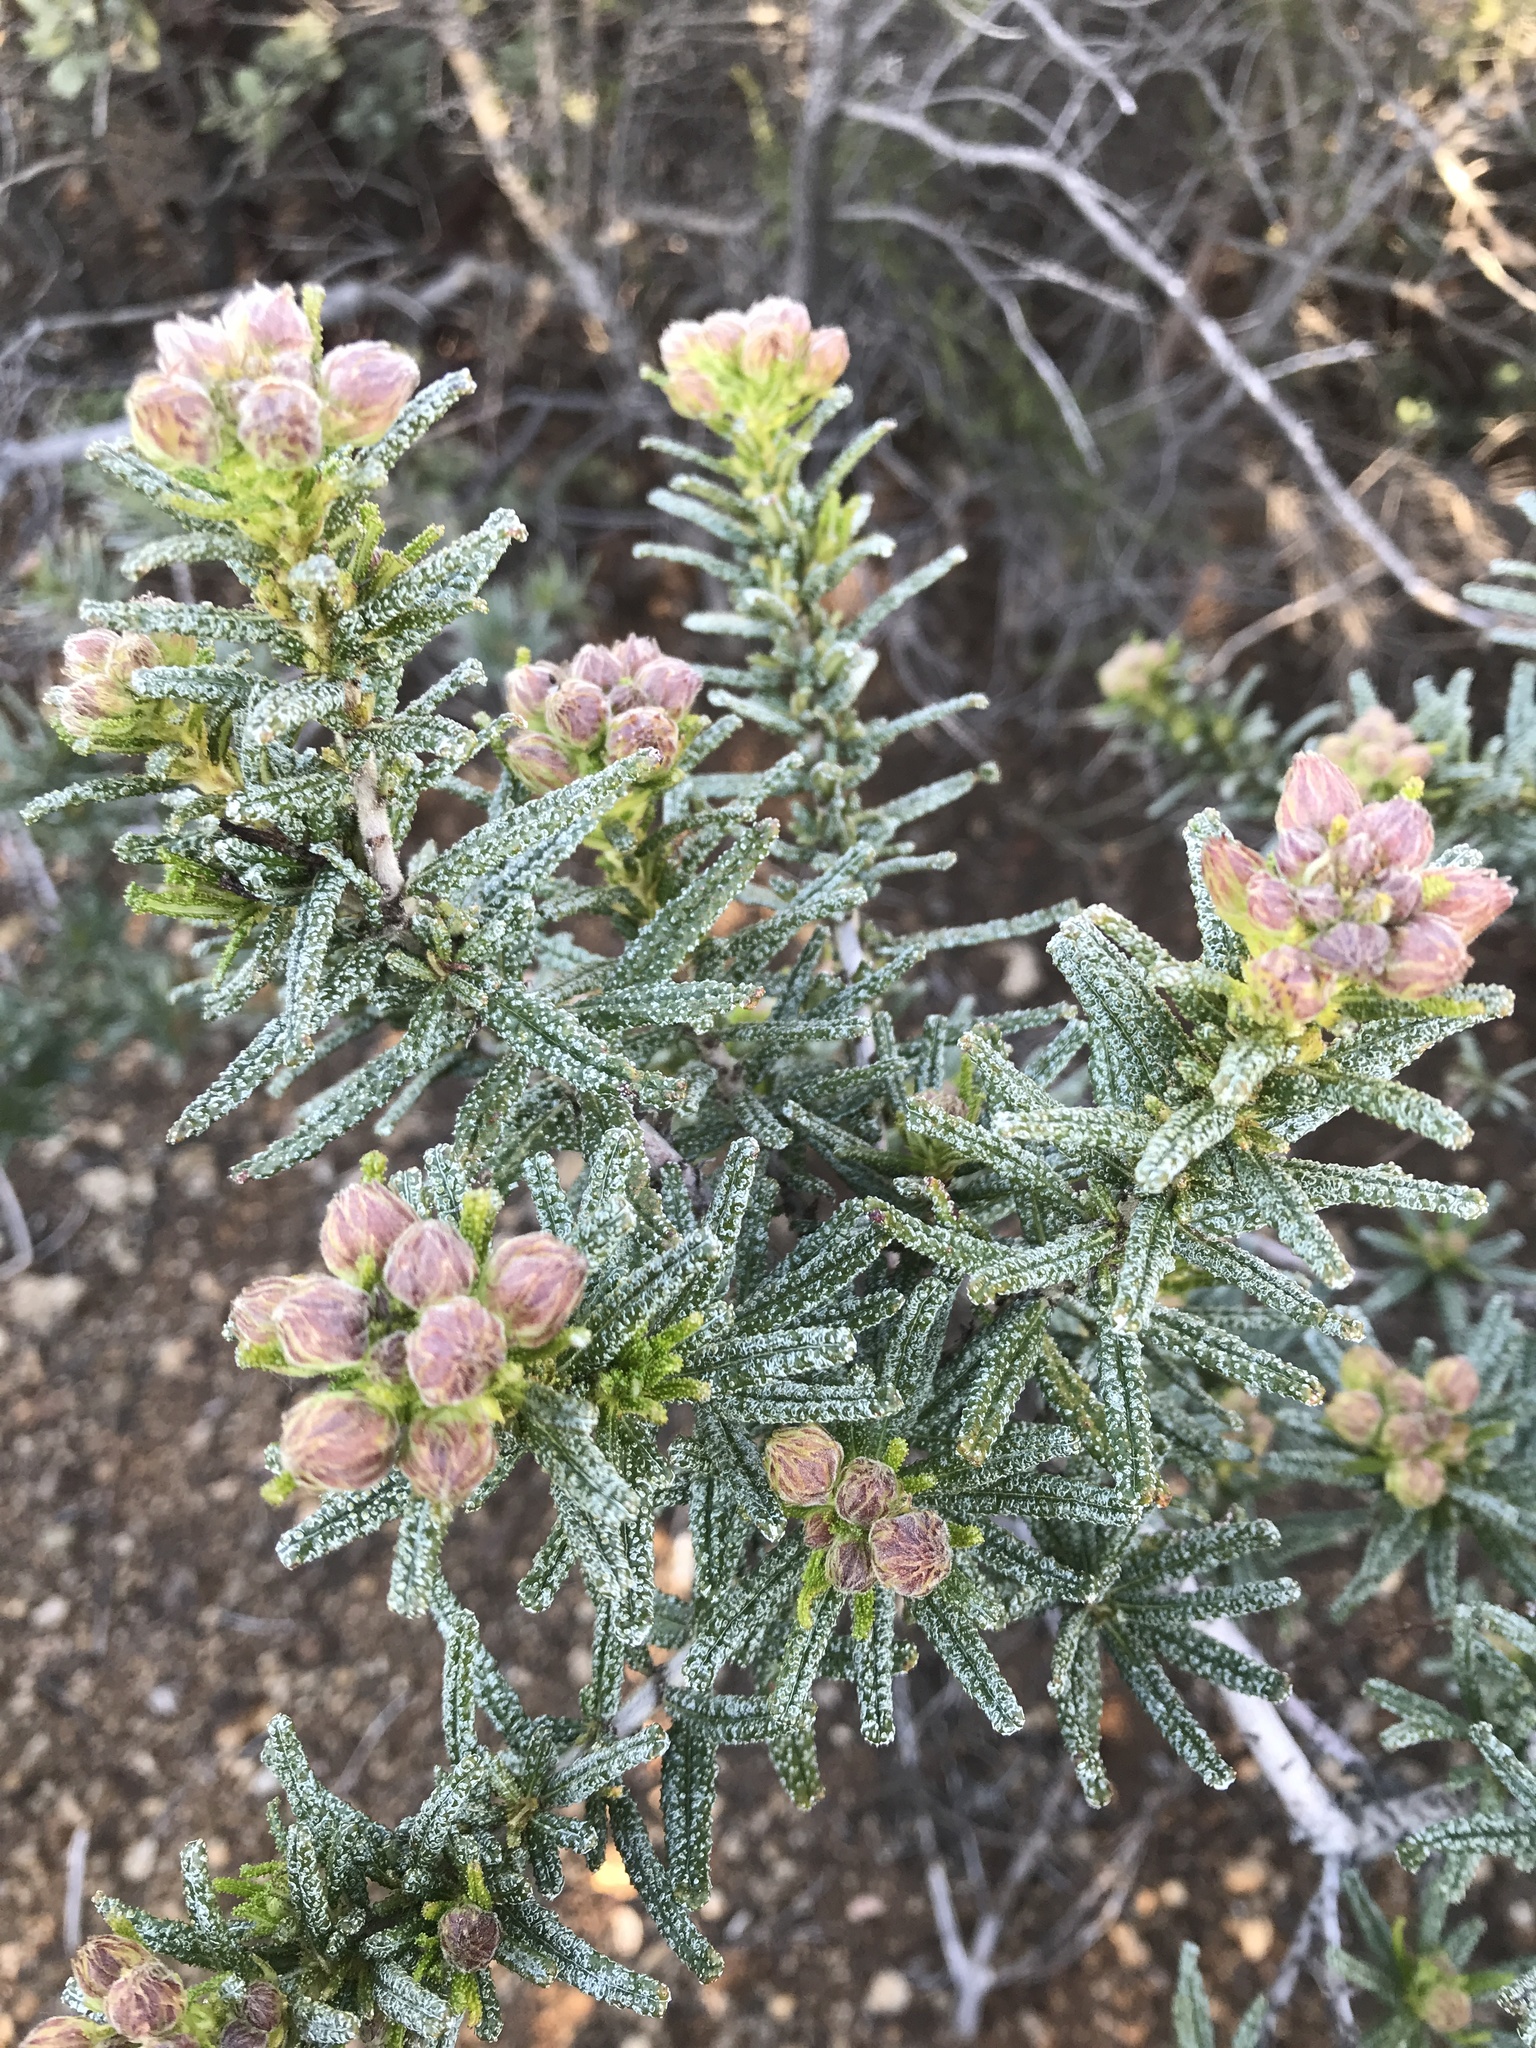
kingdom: Plantae
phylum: Tracheophyta
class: Magnoliopsida
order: Rosales
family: Rhamnaceae
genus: Ceanothus
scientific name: Ceanothus papillosus
